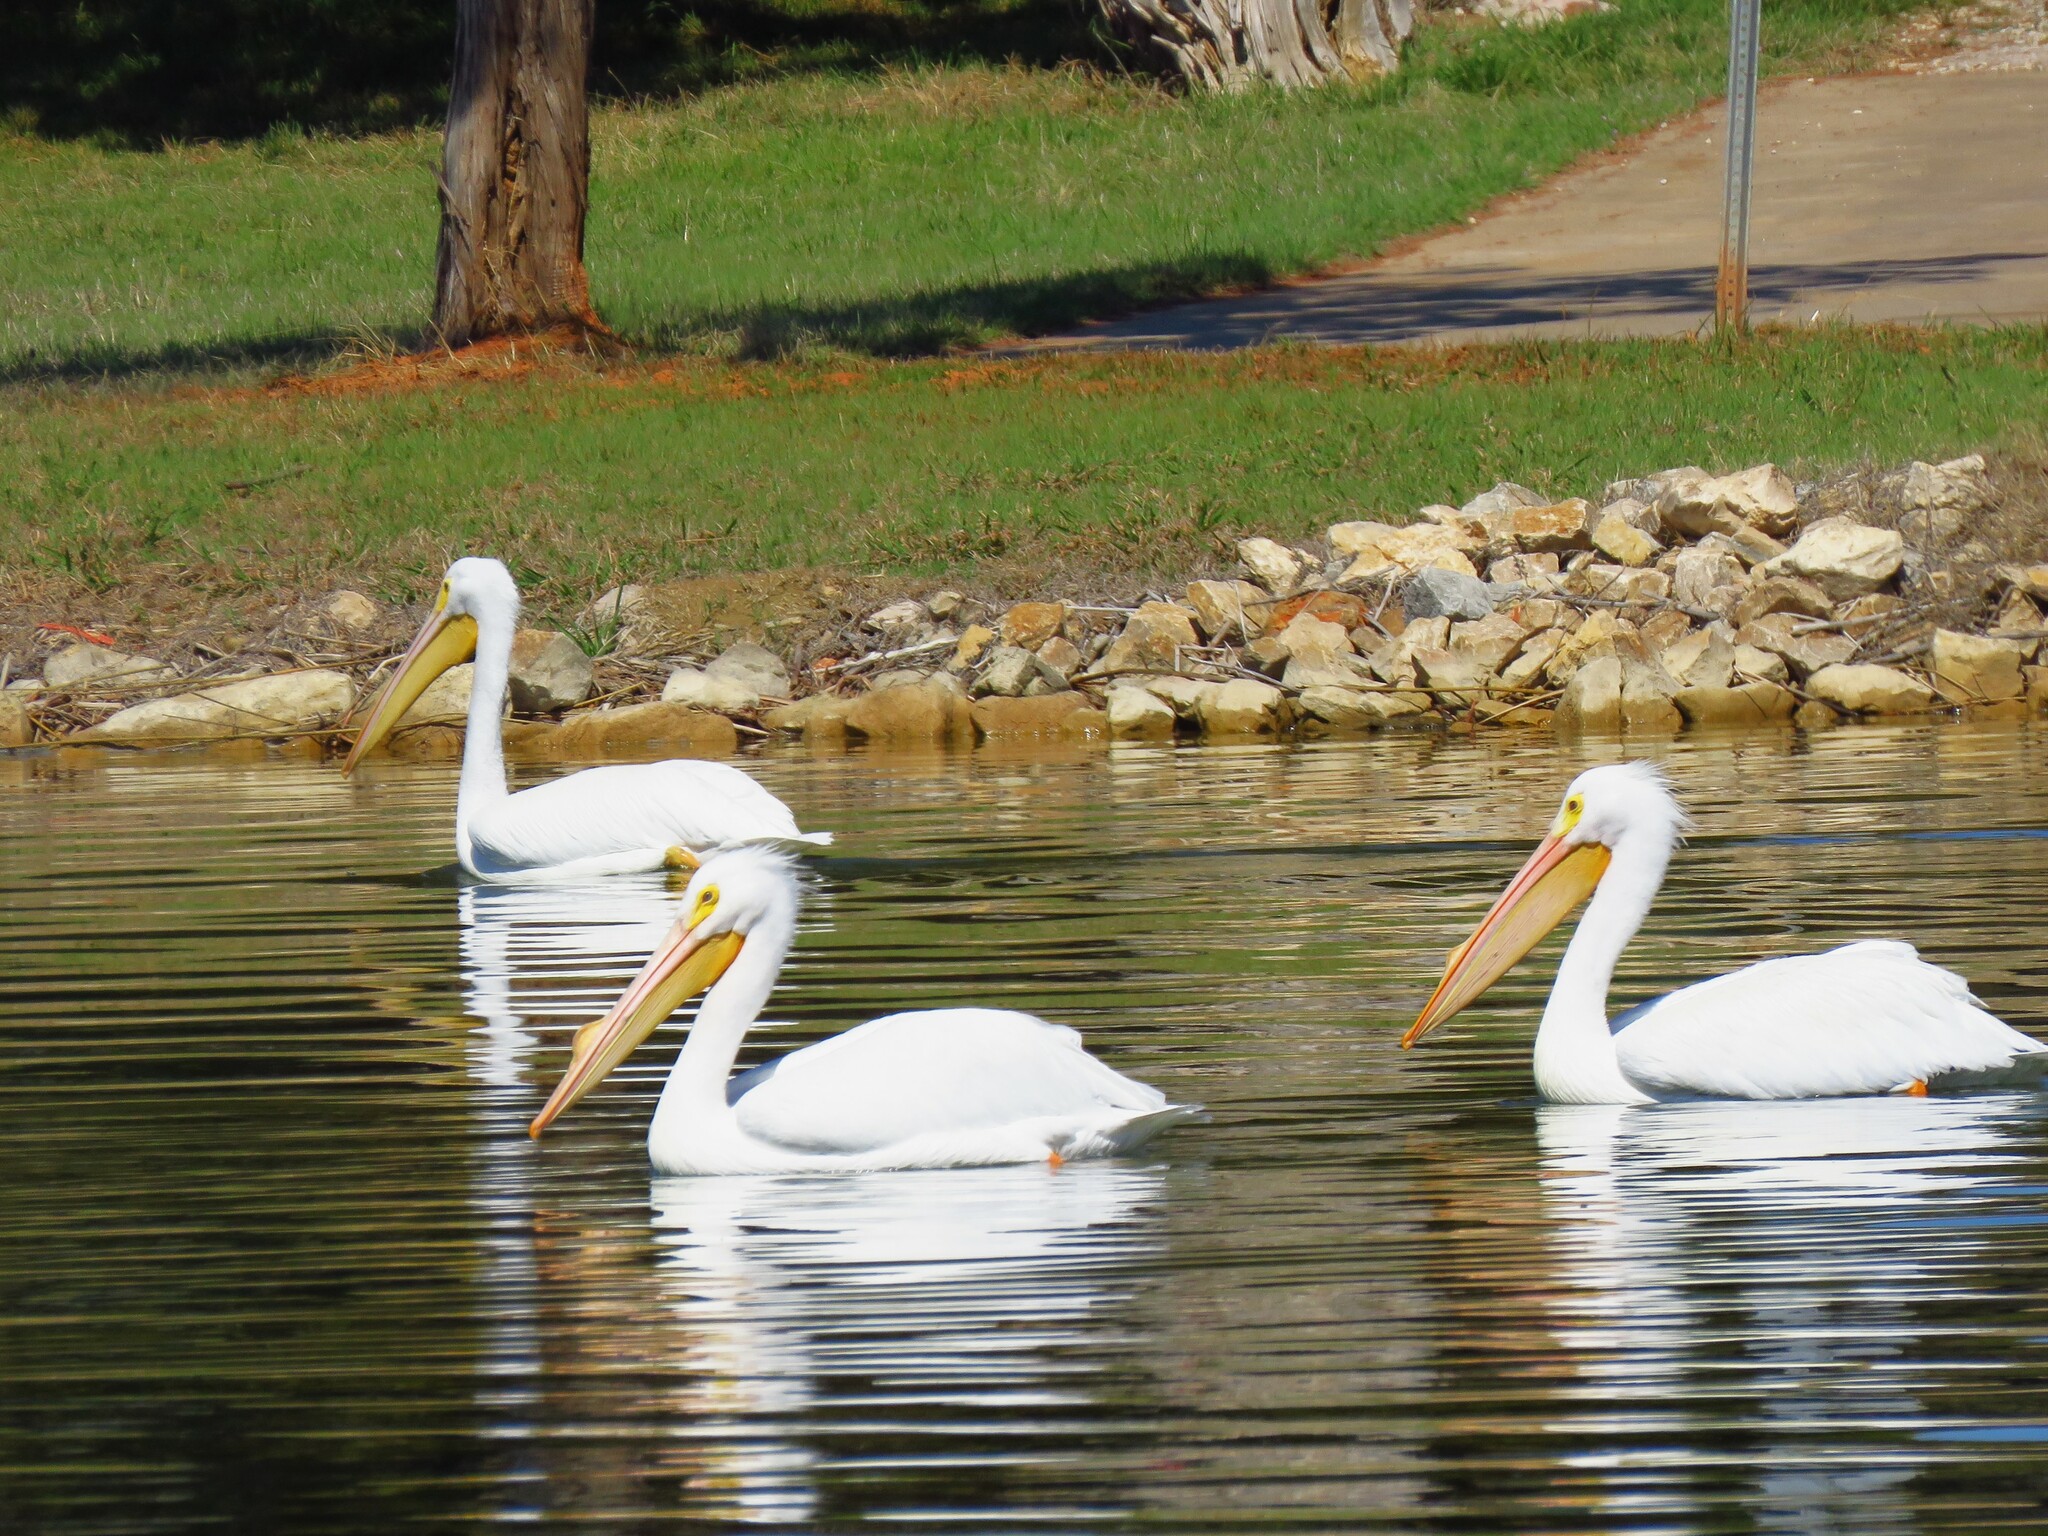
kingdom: Animalia
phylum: Chordata
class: Aves
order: Pelecaniformes
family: Pelecanidae
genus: Pelecanus
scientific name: Pelecanus erythrorhynchos
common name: American white pelican
